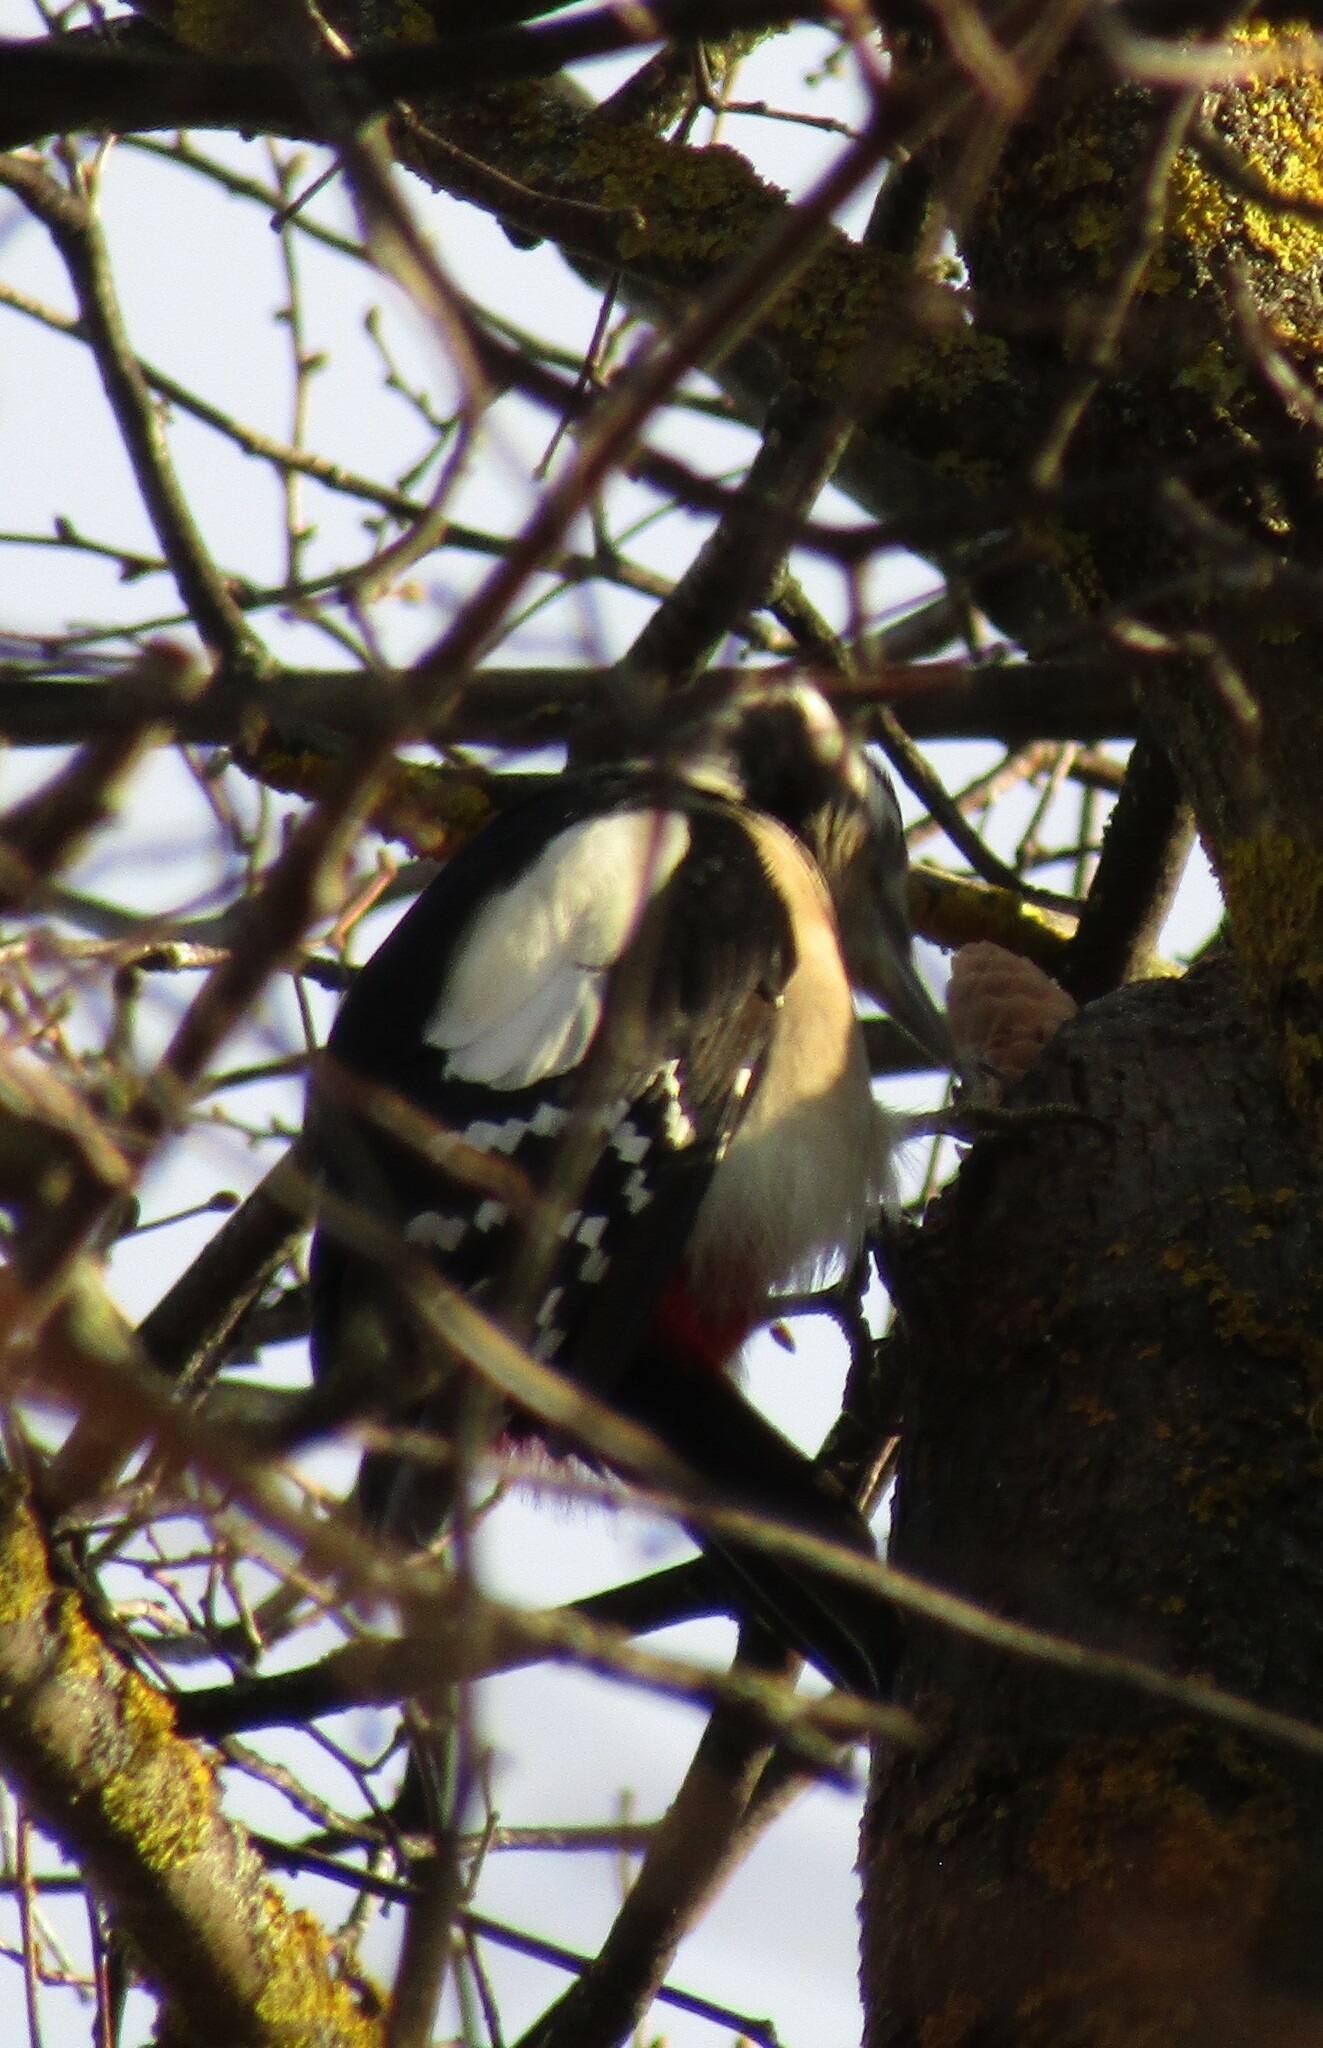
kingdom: Animalia
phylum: Chordata
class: Aves
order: Piciformes
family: Picidae
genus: Dendrocopos
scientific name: Dendrocopos major
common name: Great spotted woodpecker
